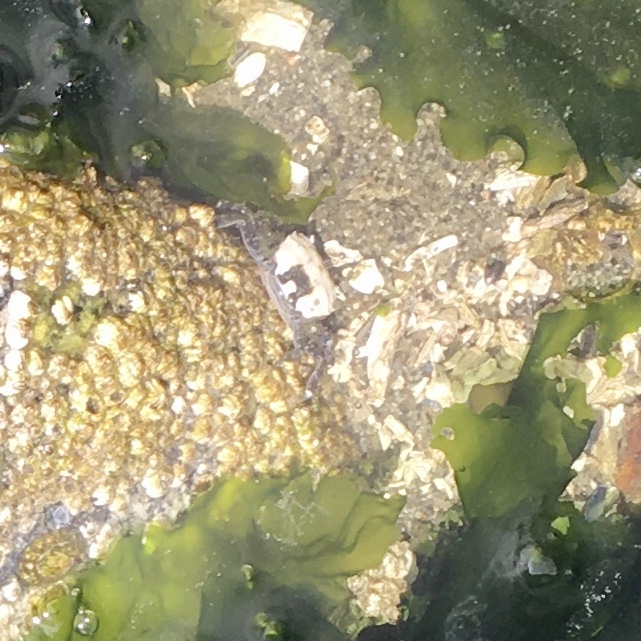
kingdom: Animalia
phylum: Arthropoda
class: Malacostraca
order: Decapoda
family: Varunidae
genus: Hemigrapsus
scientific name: Hemigrapsus oregonensis
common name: Yellow shore crab
